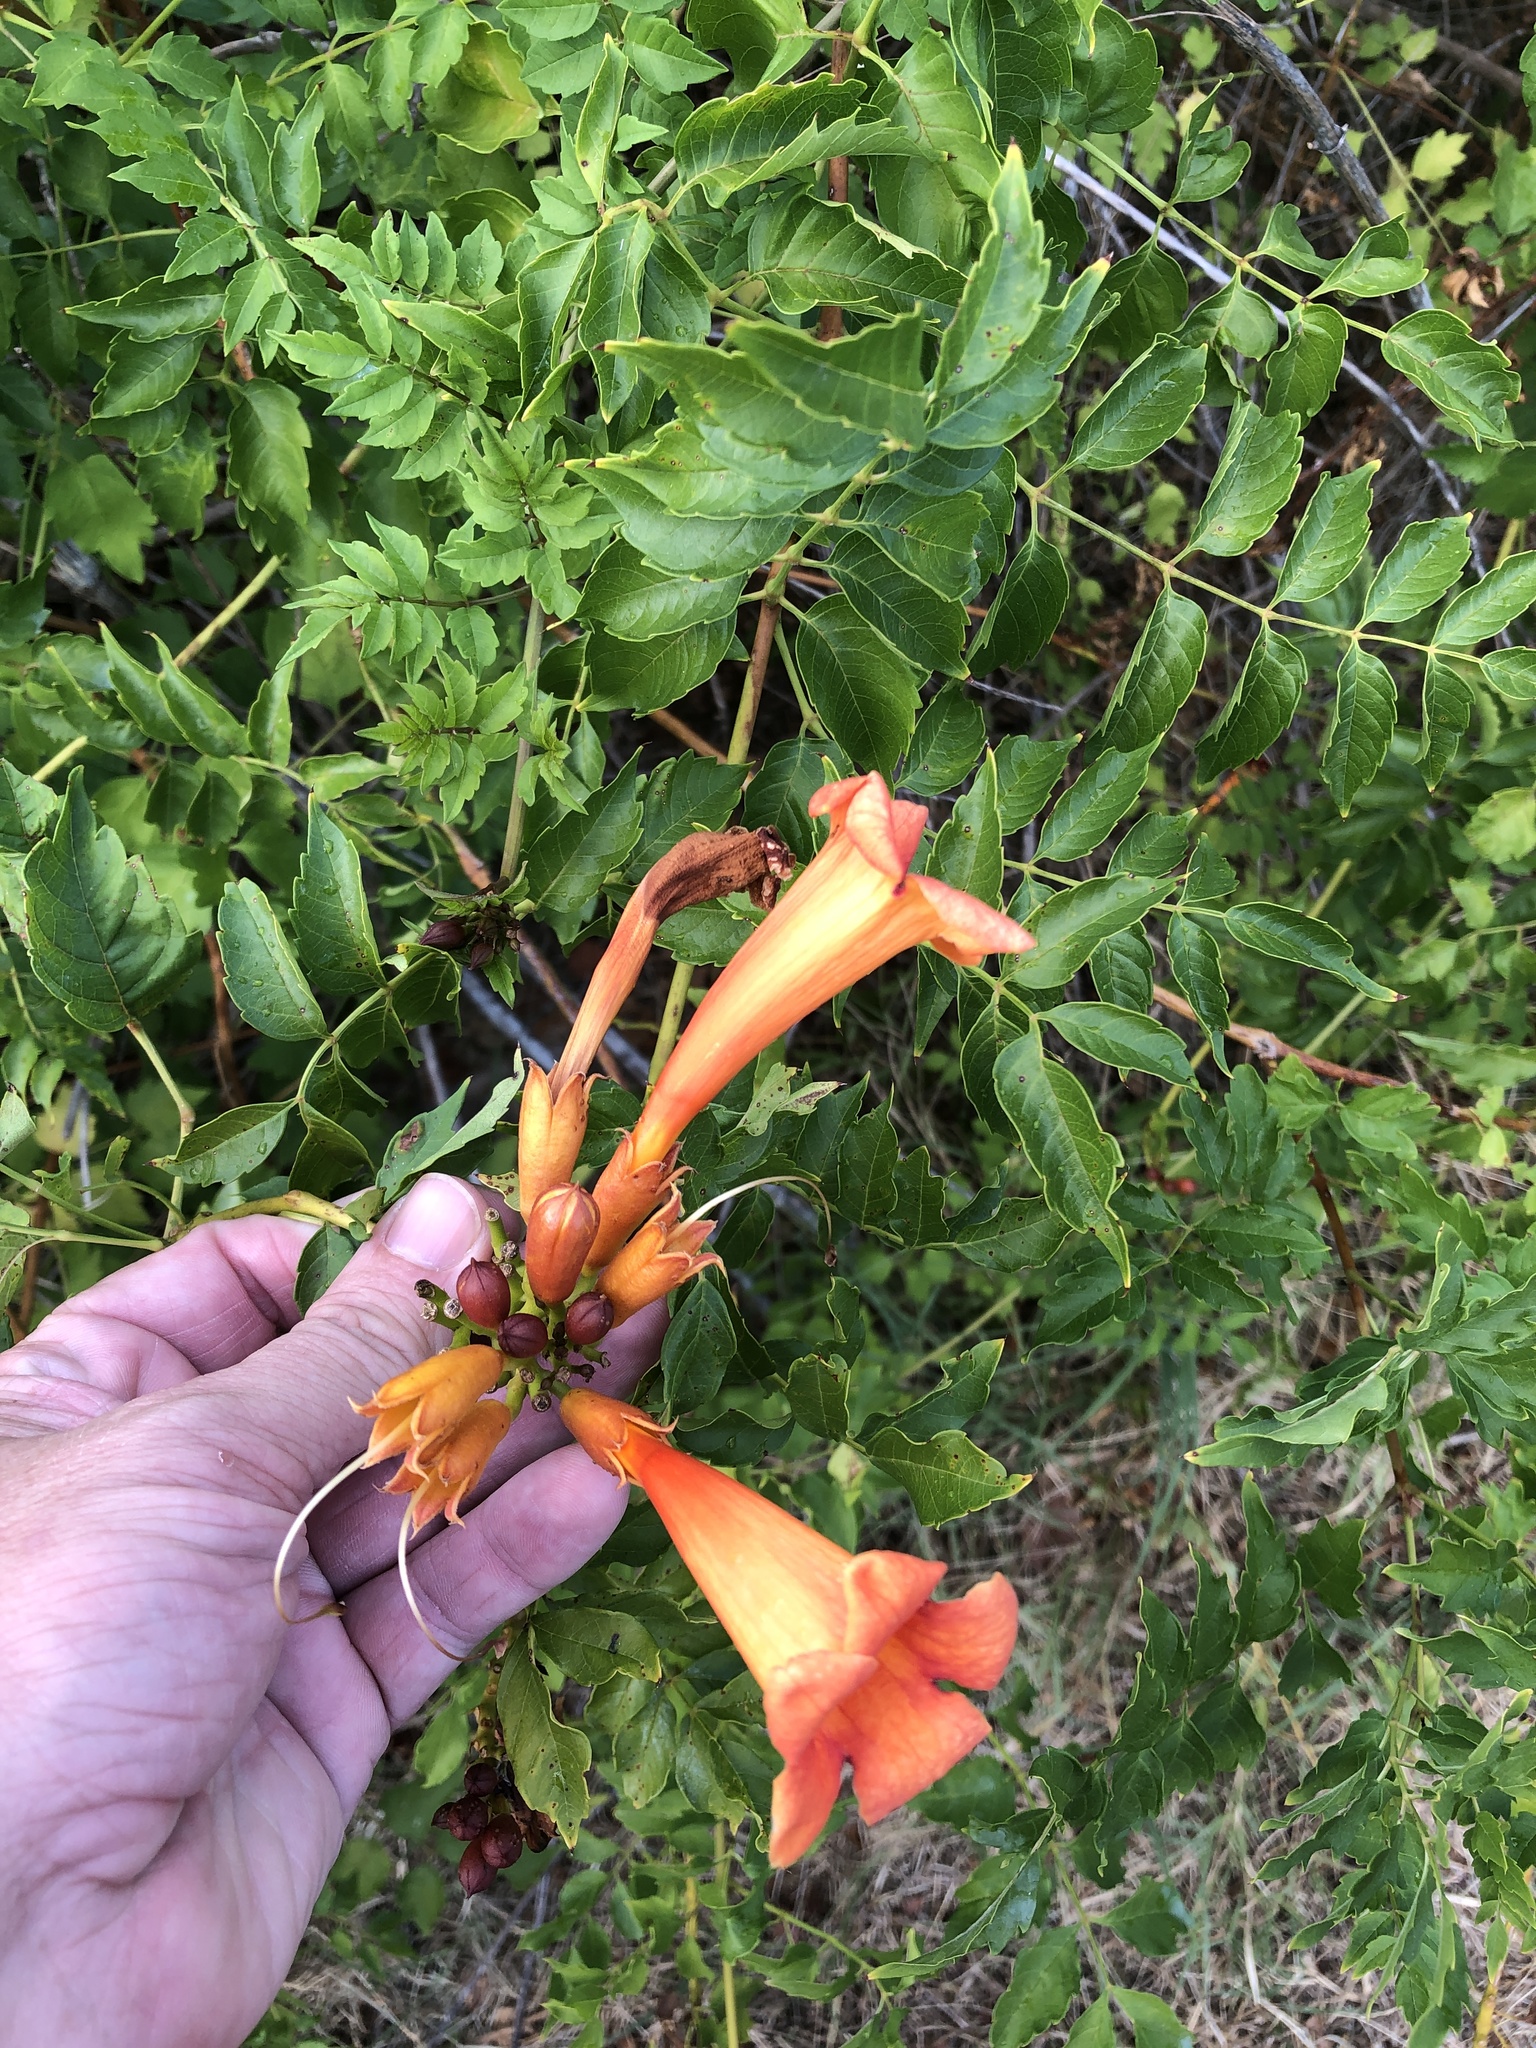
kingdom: Plantae
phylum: Tracheophyta
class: Magnoliopsida
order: Lamiales
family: Bignoniaceae
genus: Campsis
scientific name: Campsis radicans
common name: Trumpet-creeper
